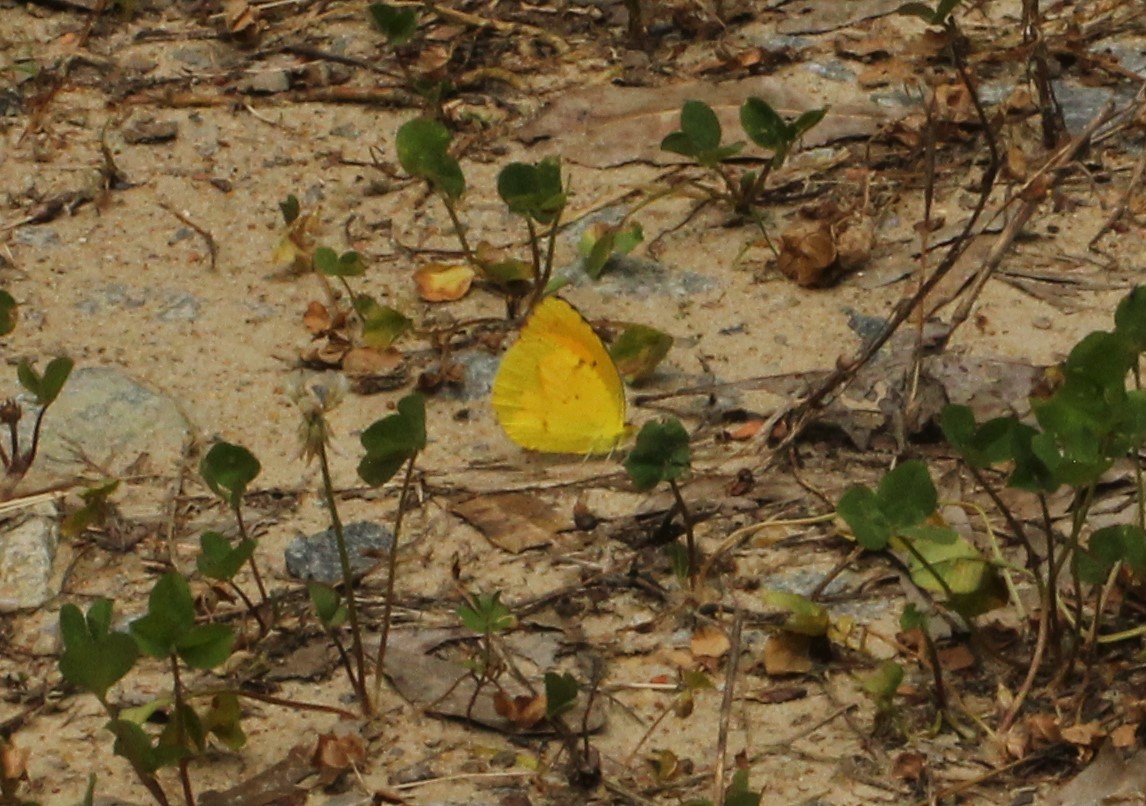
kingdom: Animalia
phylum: Arthropoda
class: Insecta
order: Lepidoptera
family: Pieridae
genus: Abaeis
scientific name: Abaeis nicippe
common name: Sleepy orange
